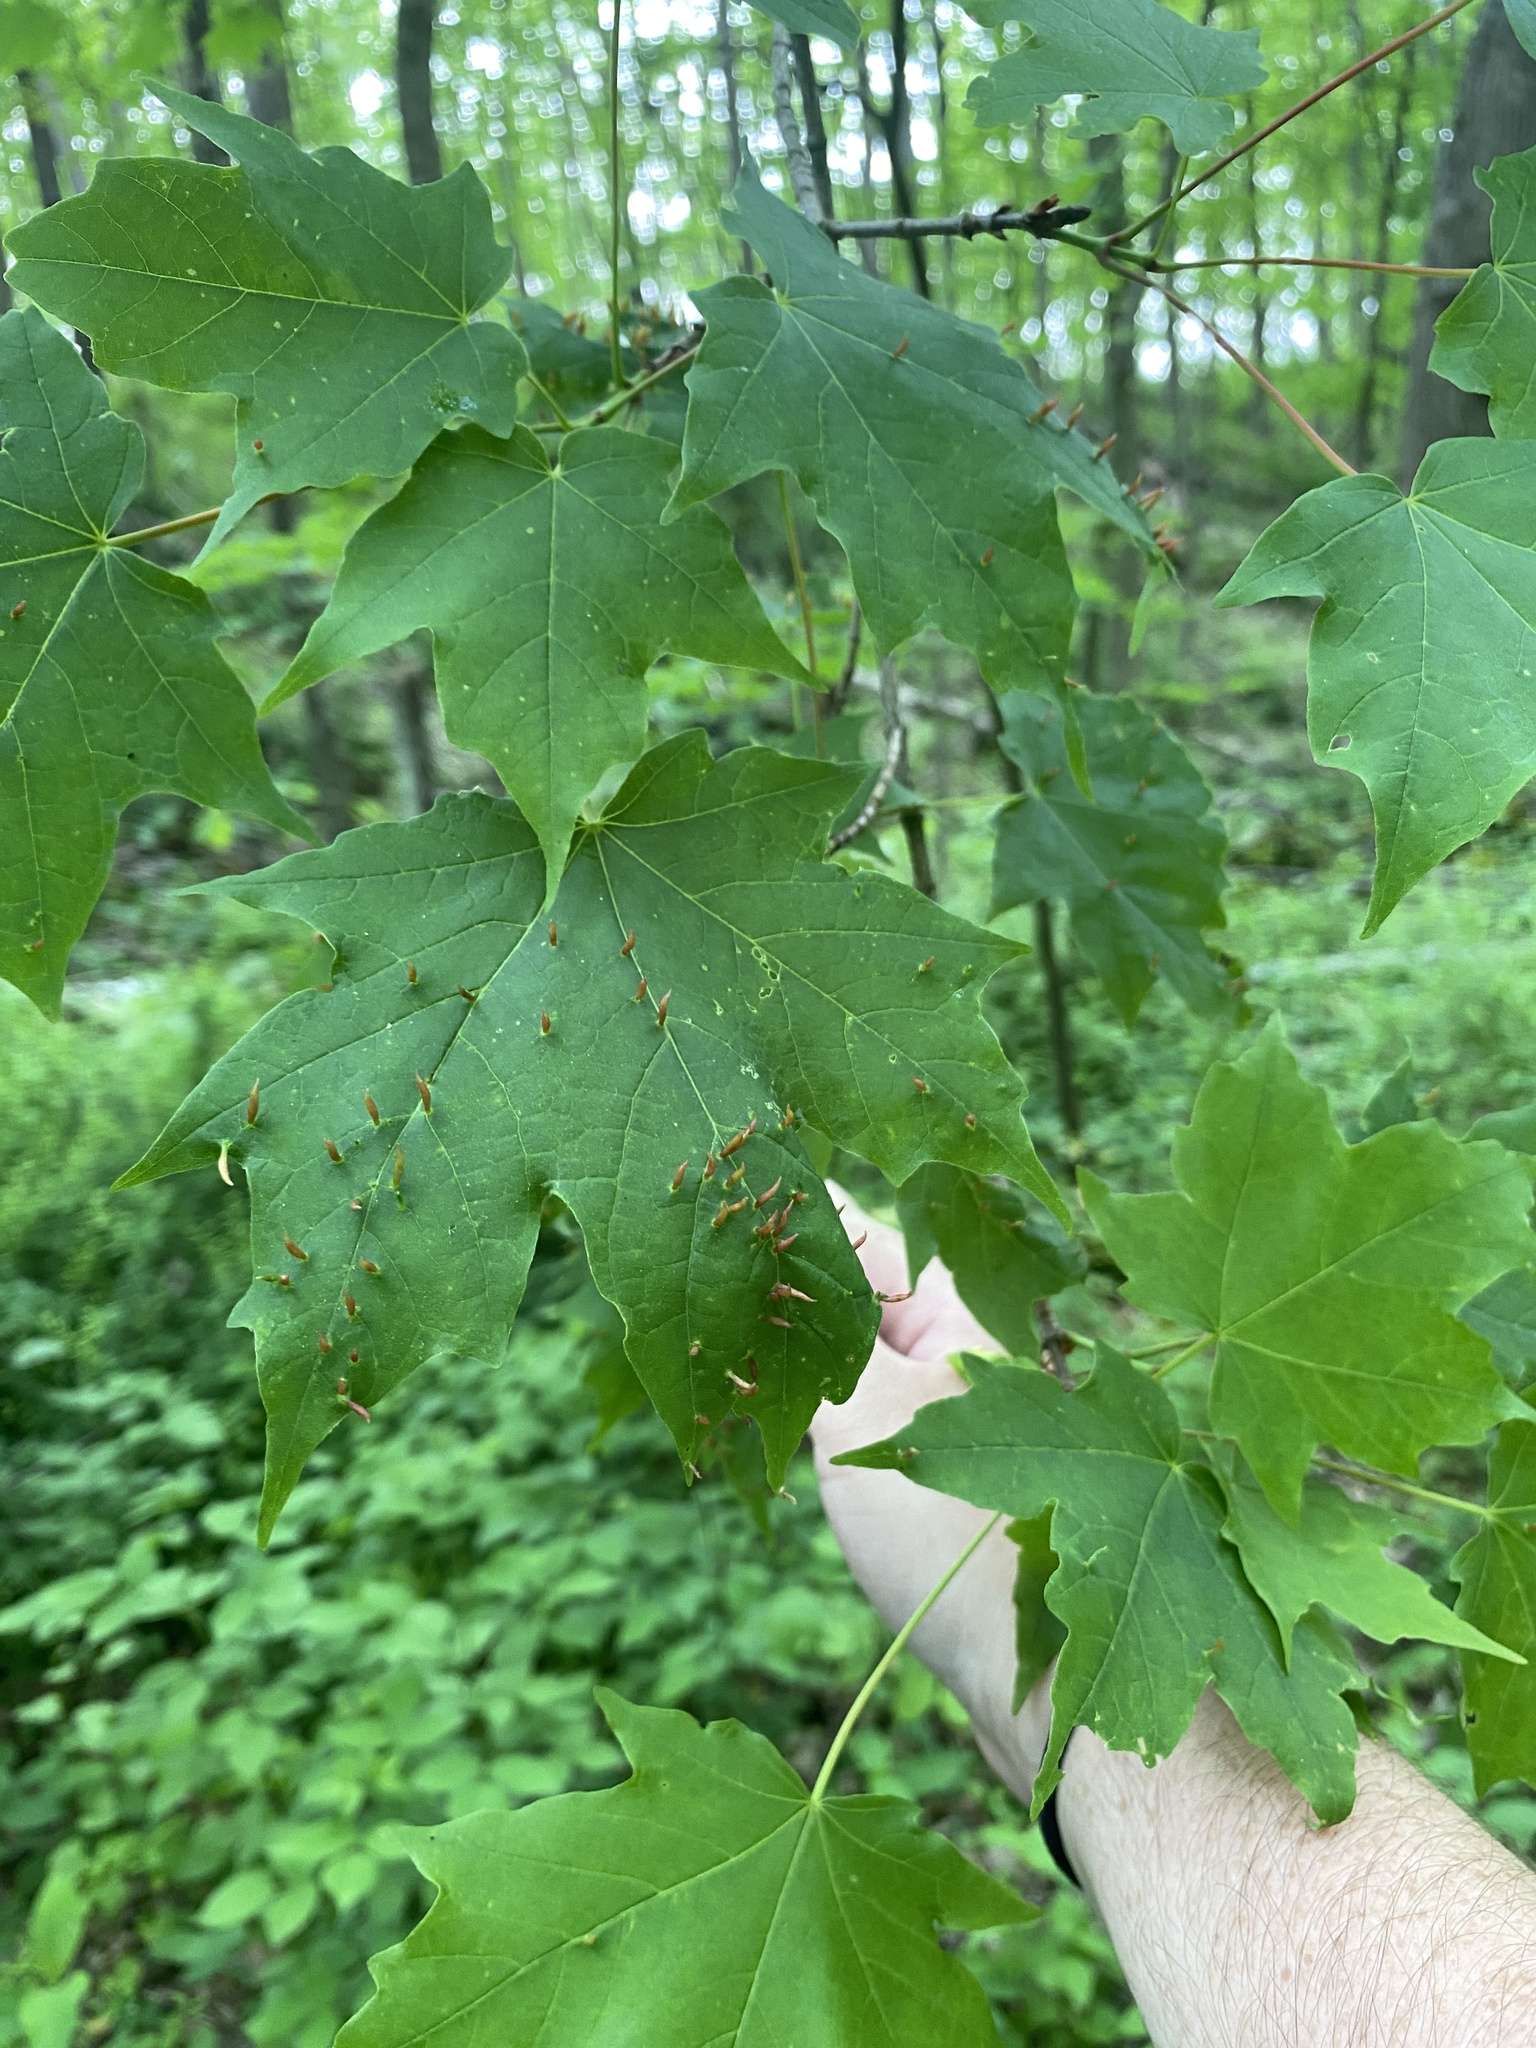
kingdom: Animalia
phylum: Arthropoda
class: Arachnida
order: Trombidiformes
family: Eriophyidae
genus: Vasates
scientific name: Vasates aceriscrumena
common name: Maple spindle gall mite
